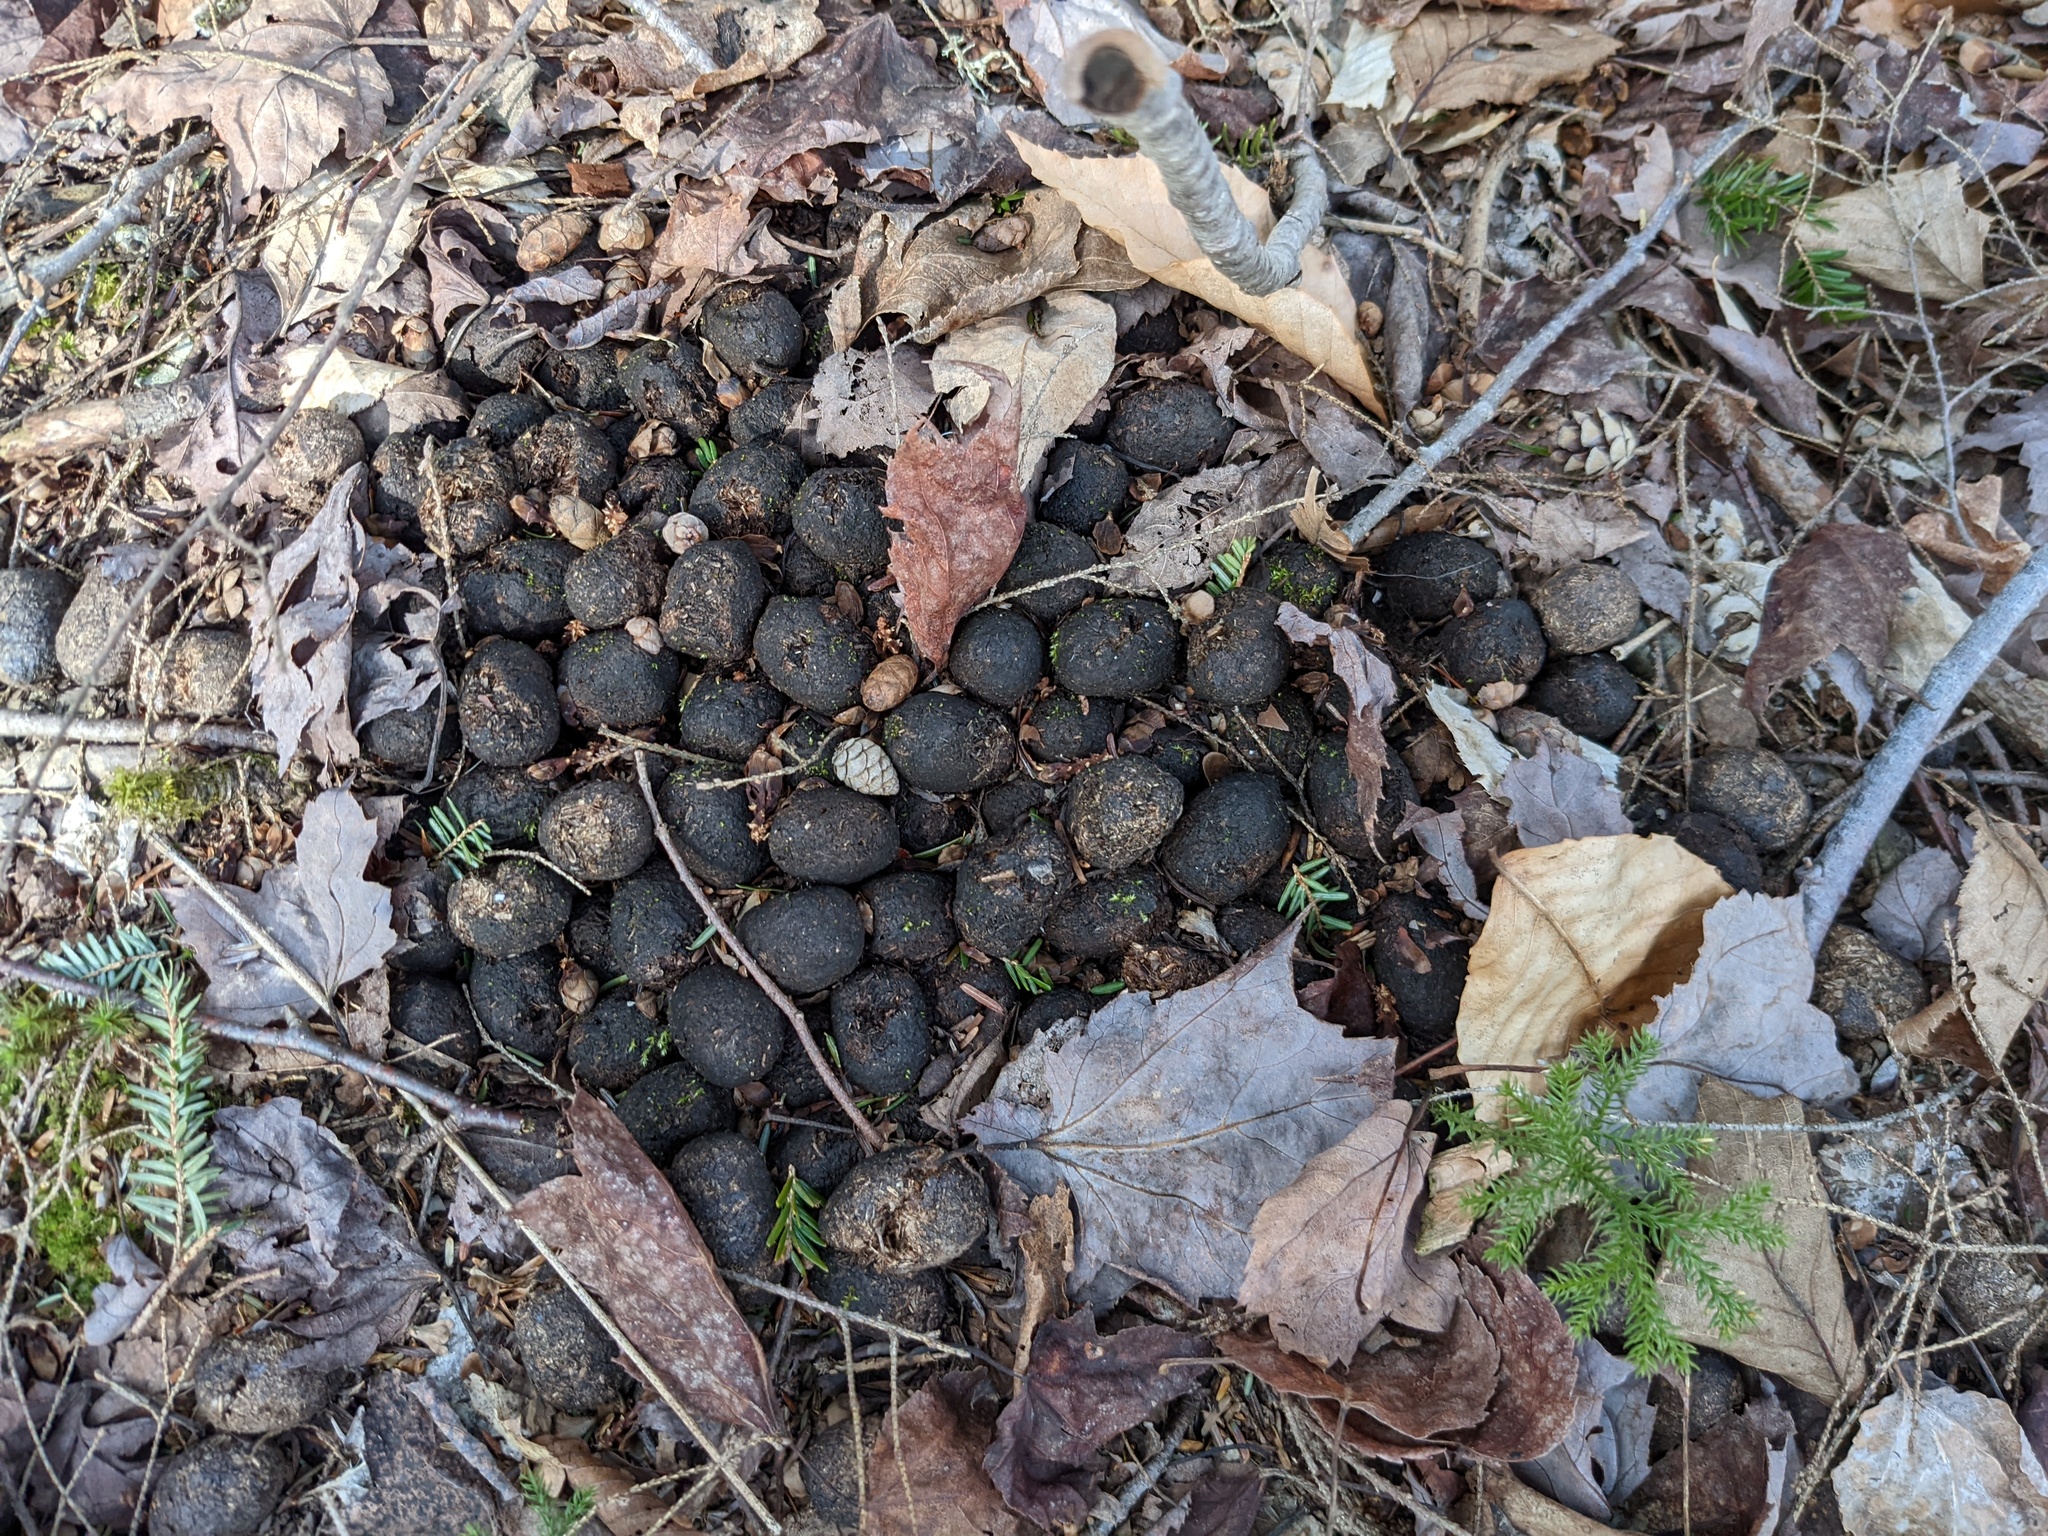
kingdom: Animalia
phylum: Chordata
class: Mammalia
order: Artiodactyla
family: Cervidae
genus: Alces
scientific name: Alces alces
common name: Moose
